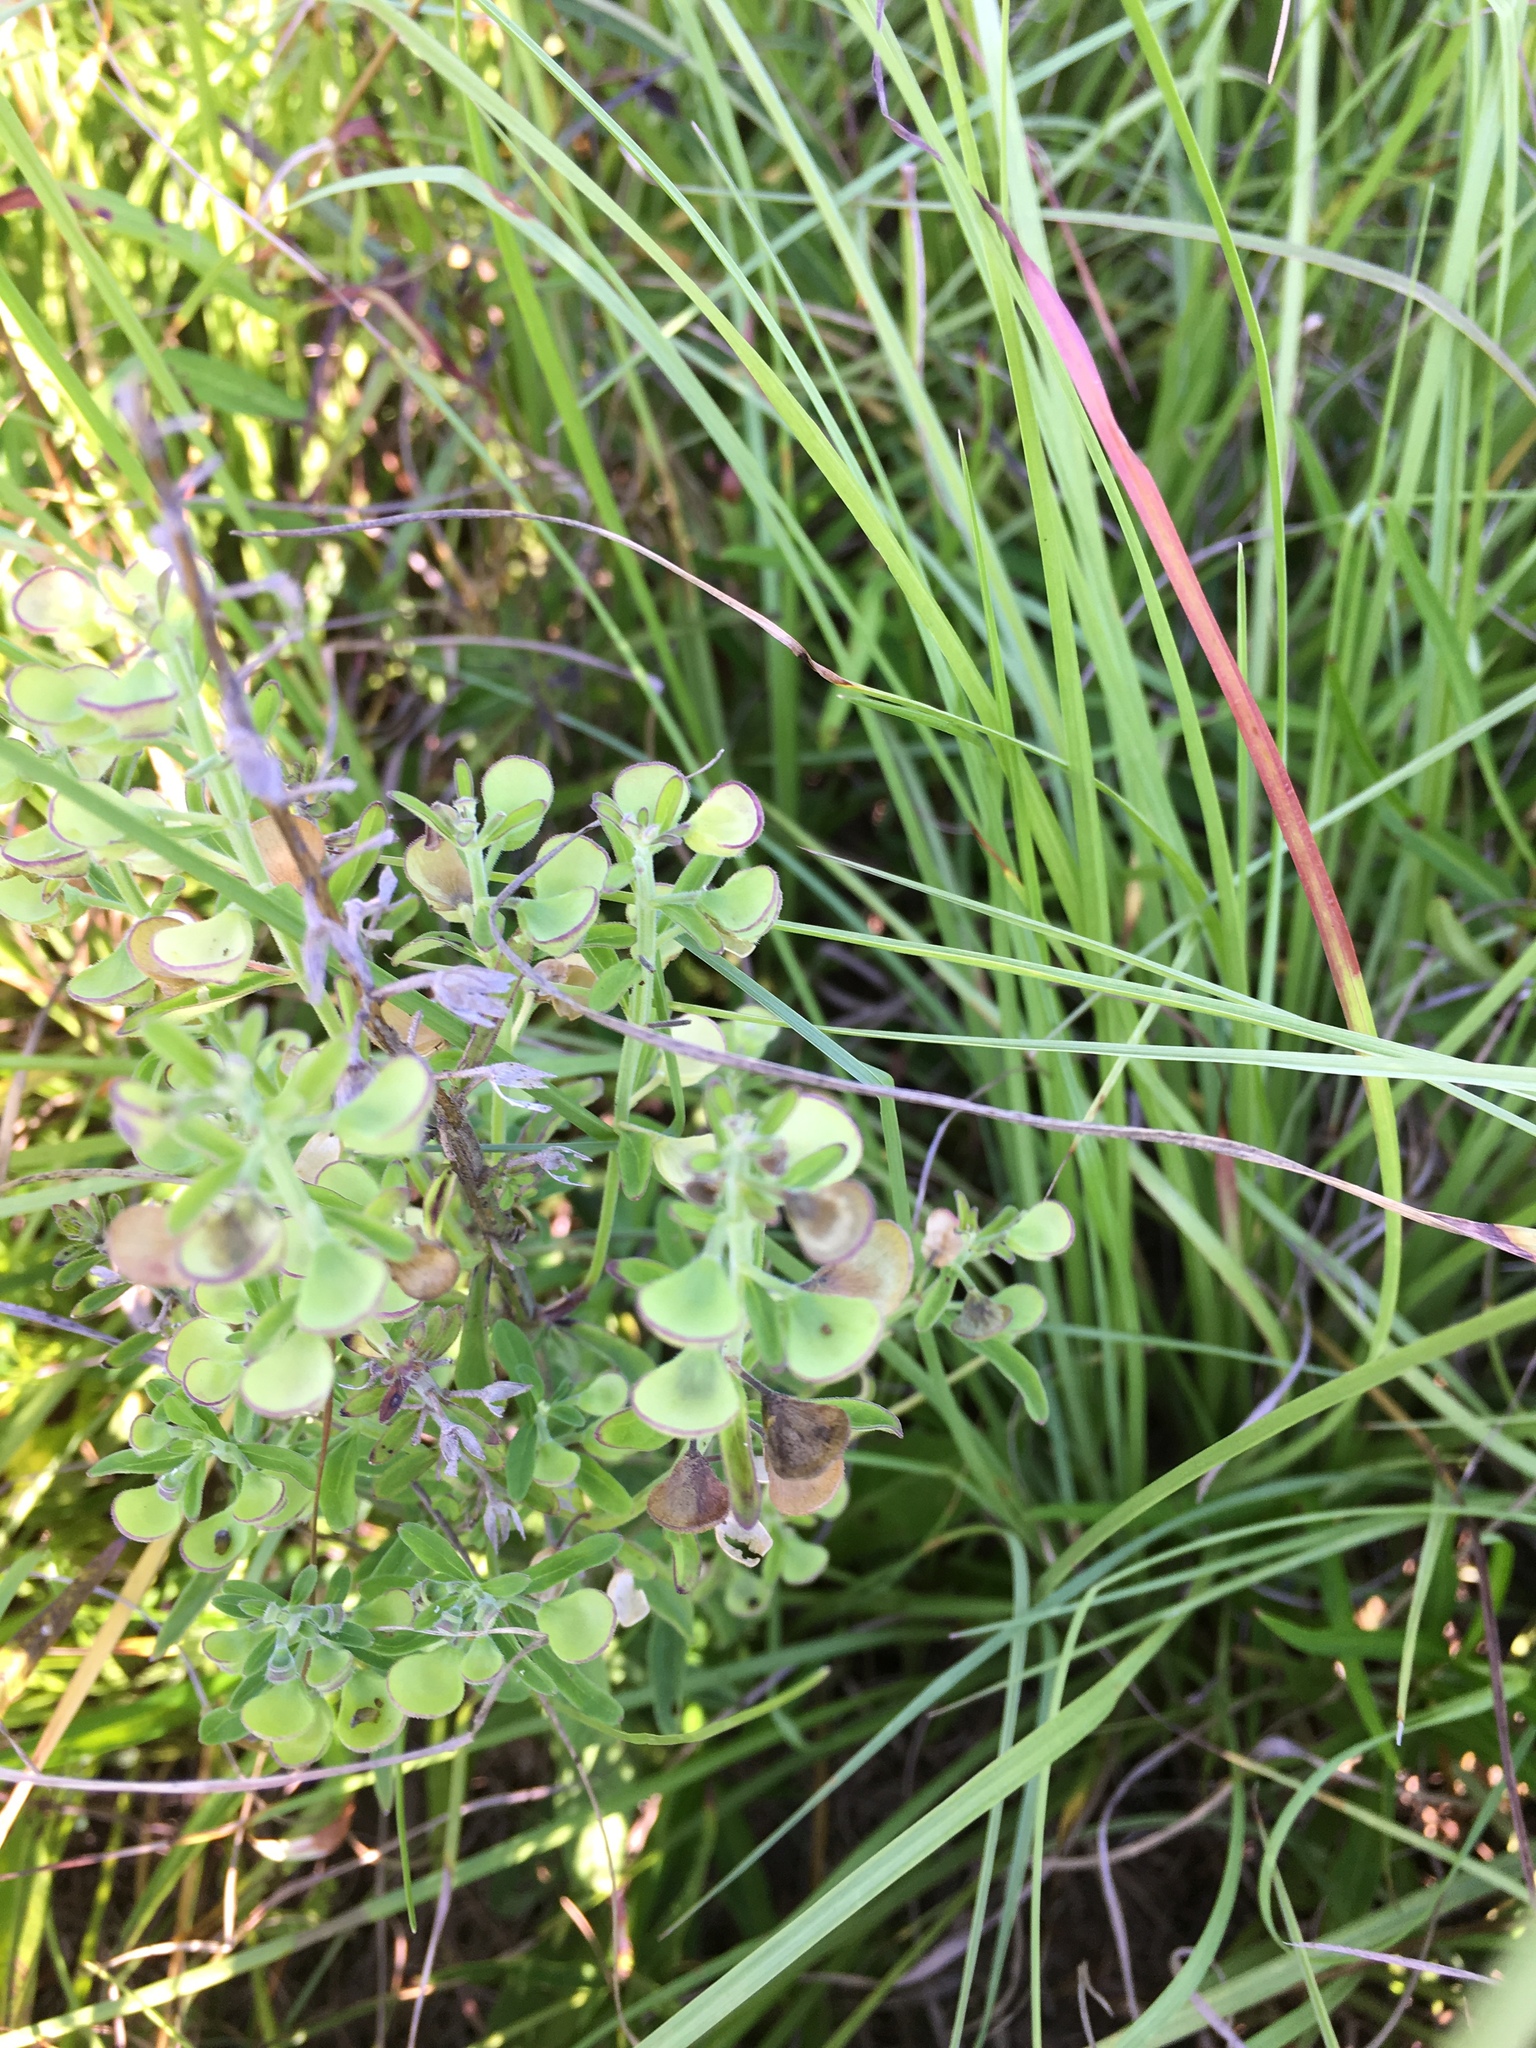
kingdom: Plantae
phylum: Tracheophyta
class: Magnoliopsida
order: Lamiales
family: Lamiaceae
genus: Scutellaria
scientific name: Scutellaria integrifolia
